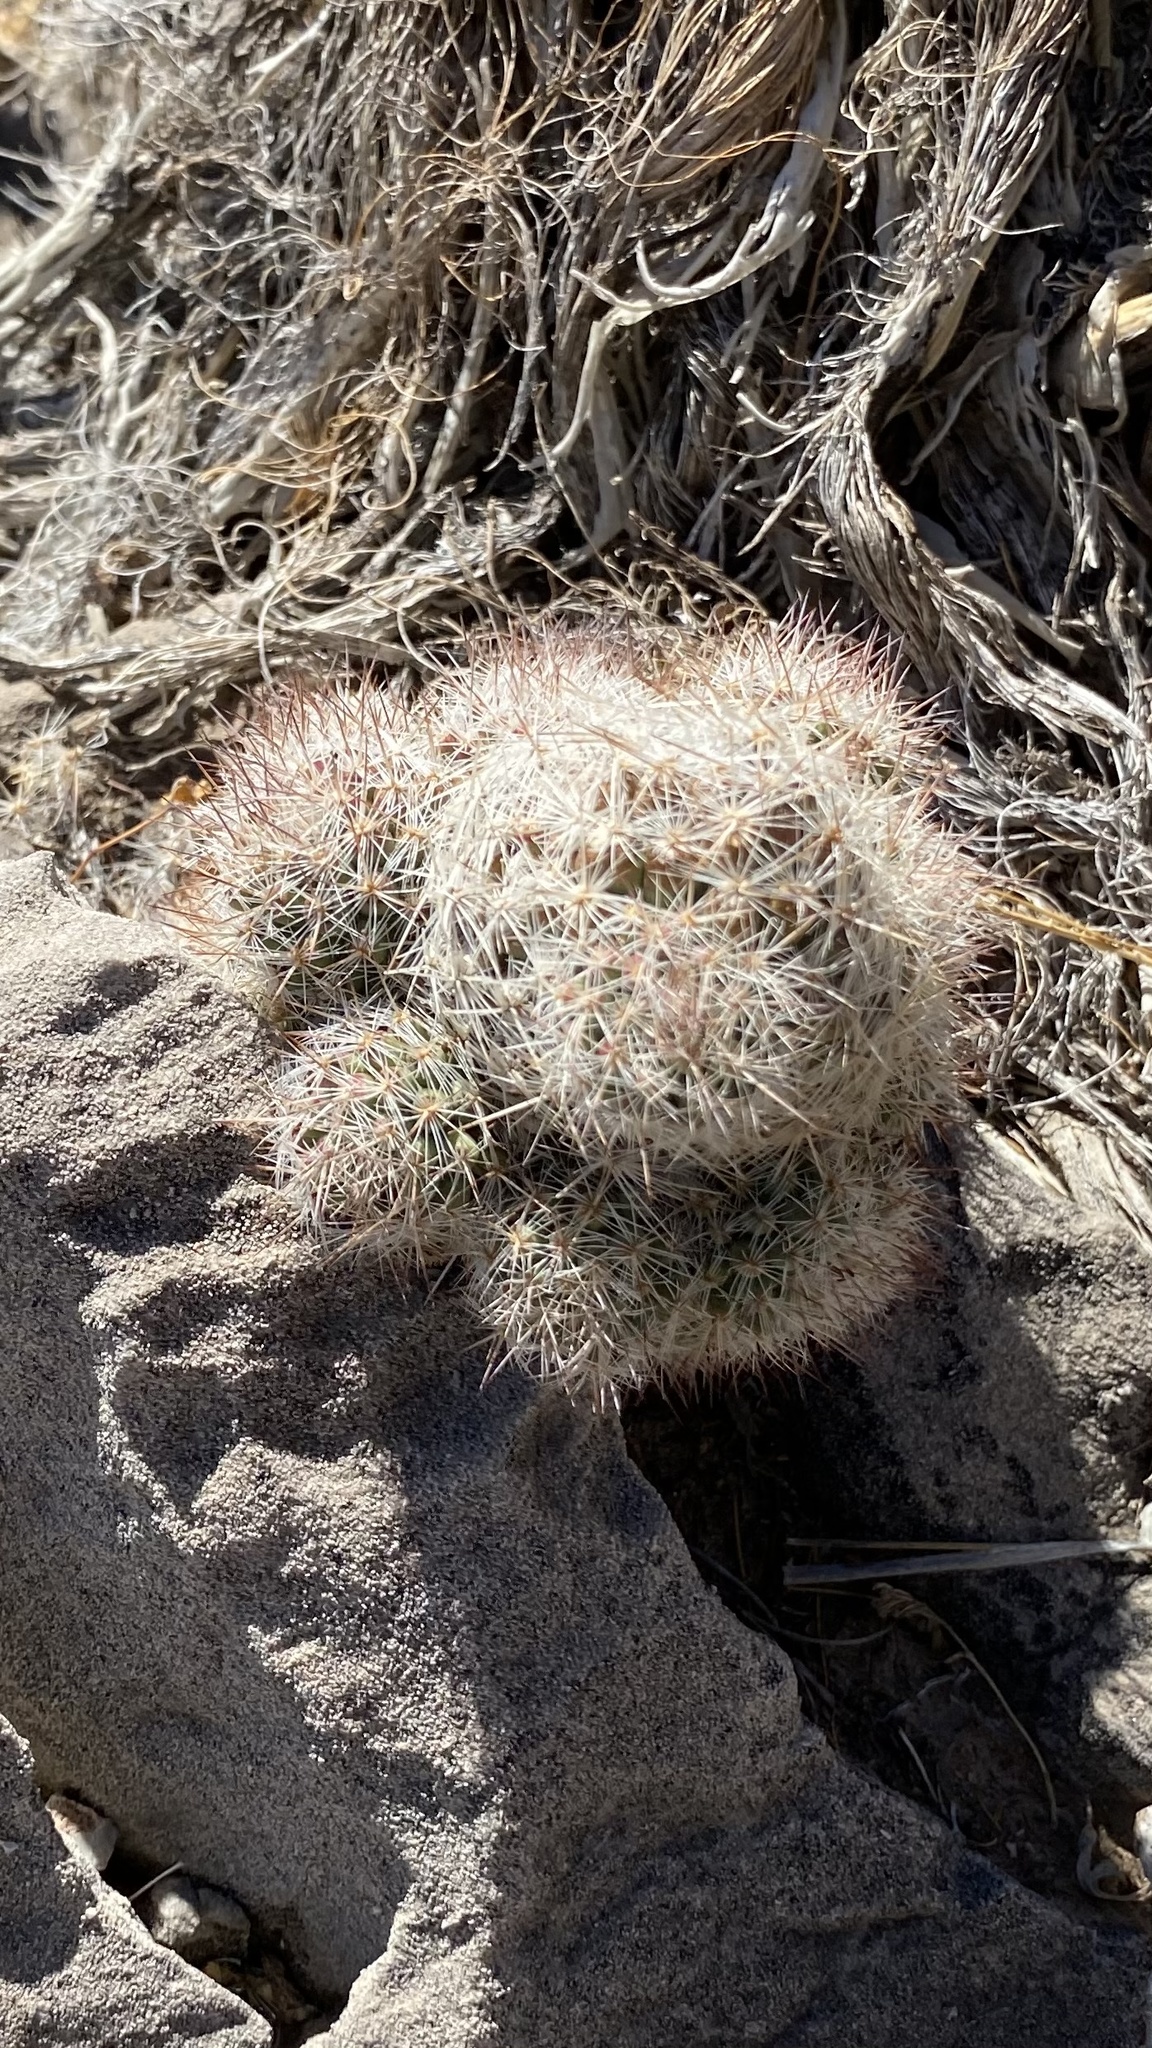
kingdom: Plantae
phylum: Tracheophyta
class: Magnoliopsida
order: Caryophyllales
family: Cactaceae
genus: Pelecyphora
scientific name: Pelecyphora tuberculosa
